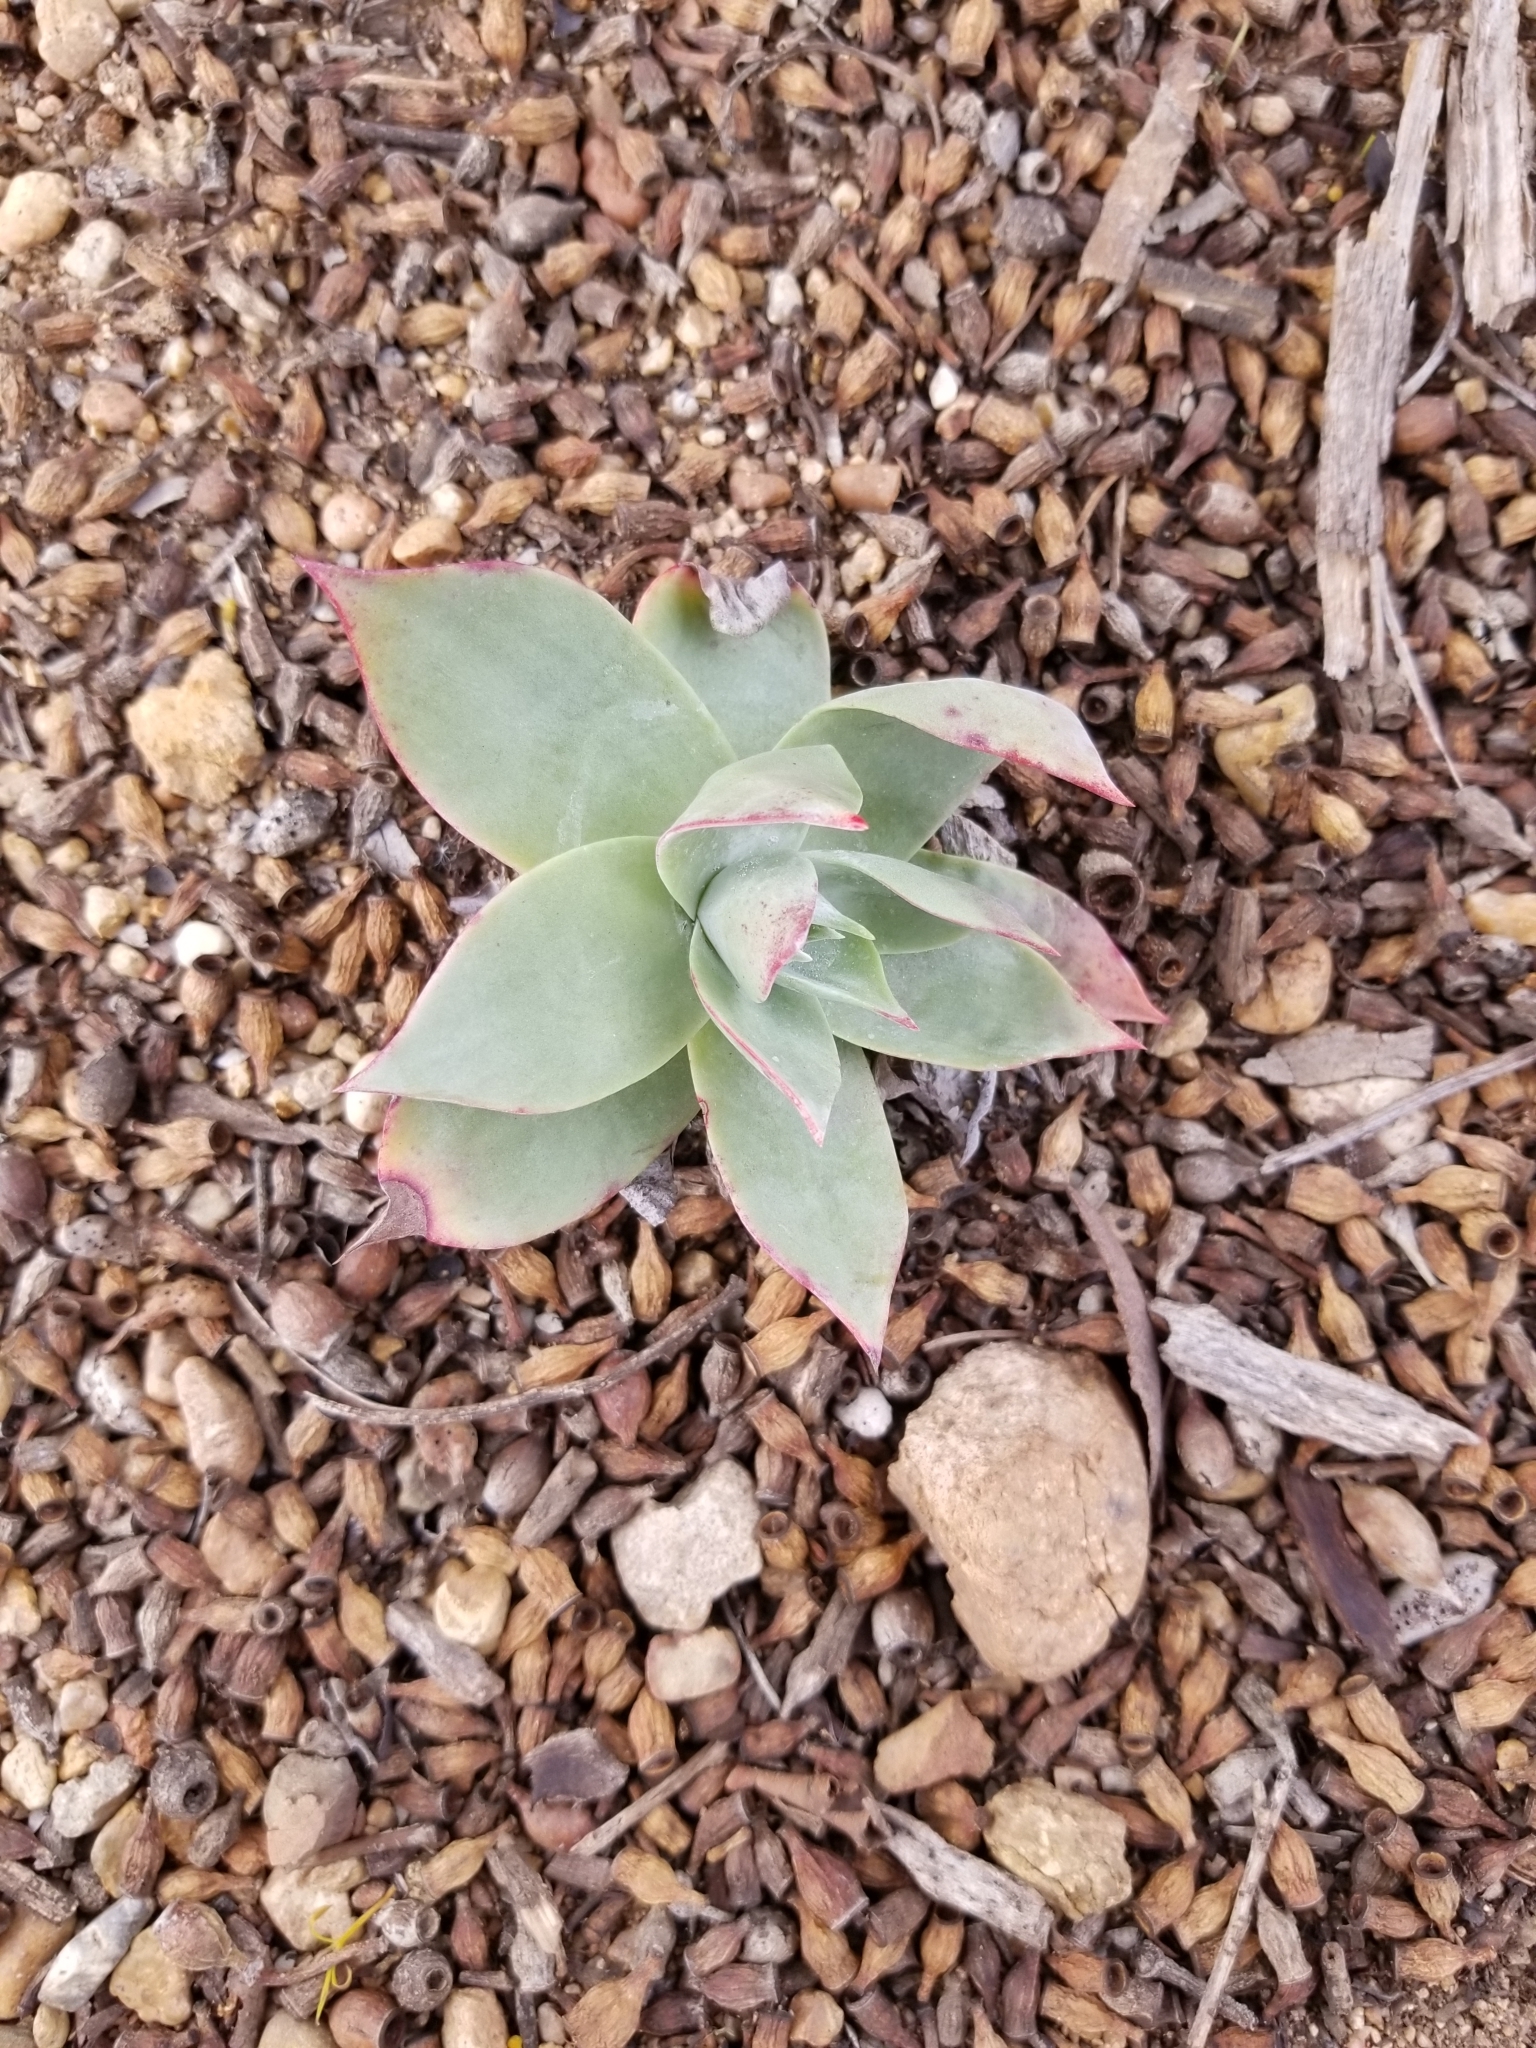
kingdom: Plantae
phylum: Tracheophyta
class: Magnoliopsida
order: Saxifragales
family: Crassulaceae
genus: Dudleya
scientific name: Dudleya pulverulenta
